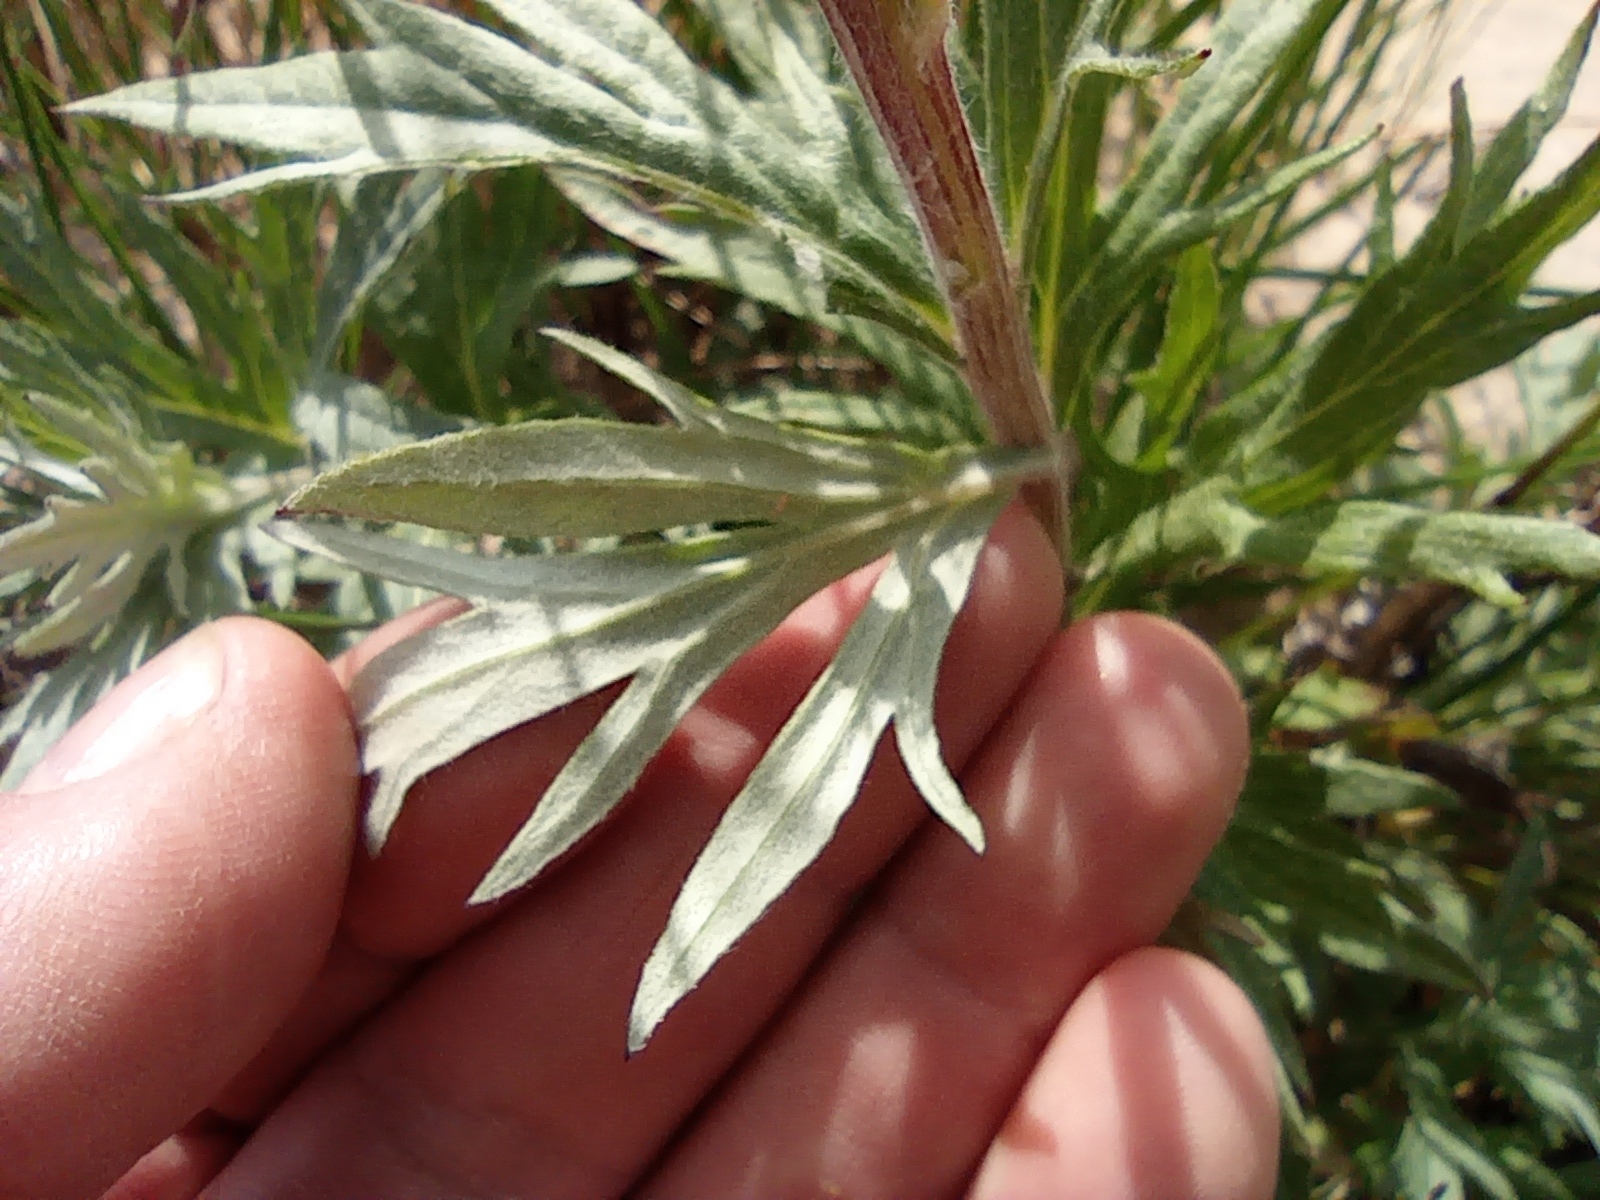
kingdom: Plantae
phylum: Tracheophyta
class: Magnoliopsida
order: Asterales
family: Asteraceae
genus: Artemisia
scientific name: Artemisia tilesii
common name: Aleutian mugwort
